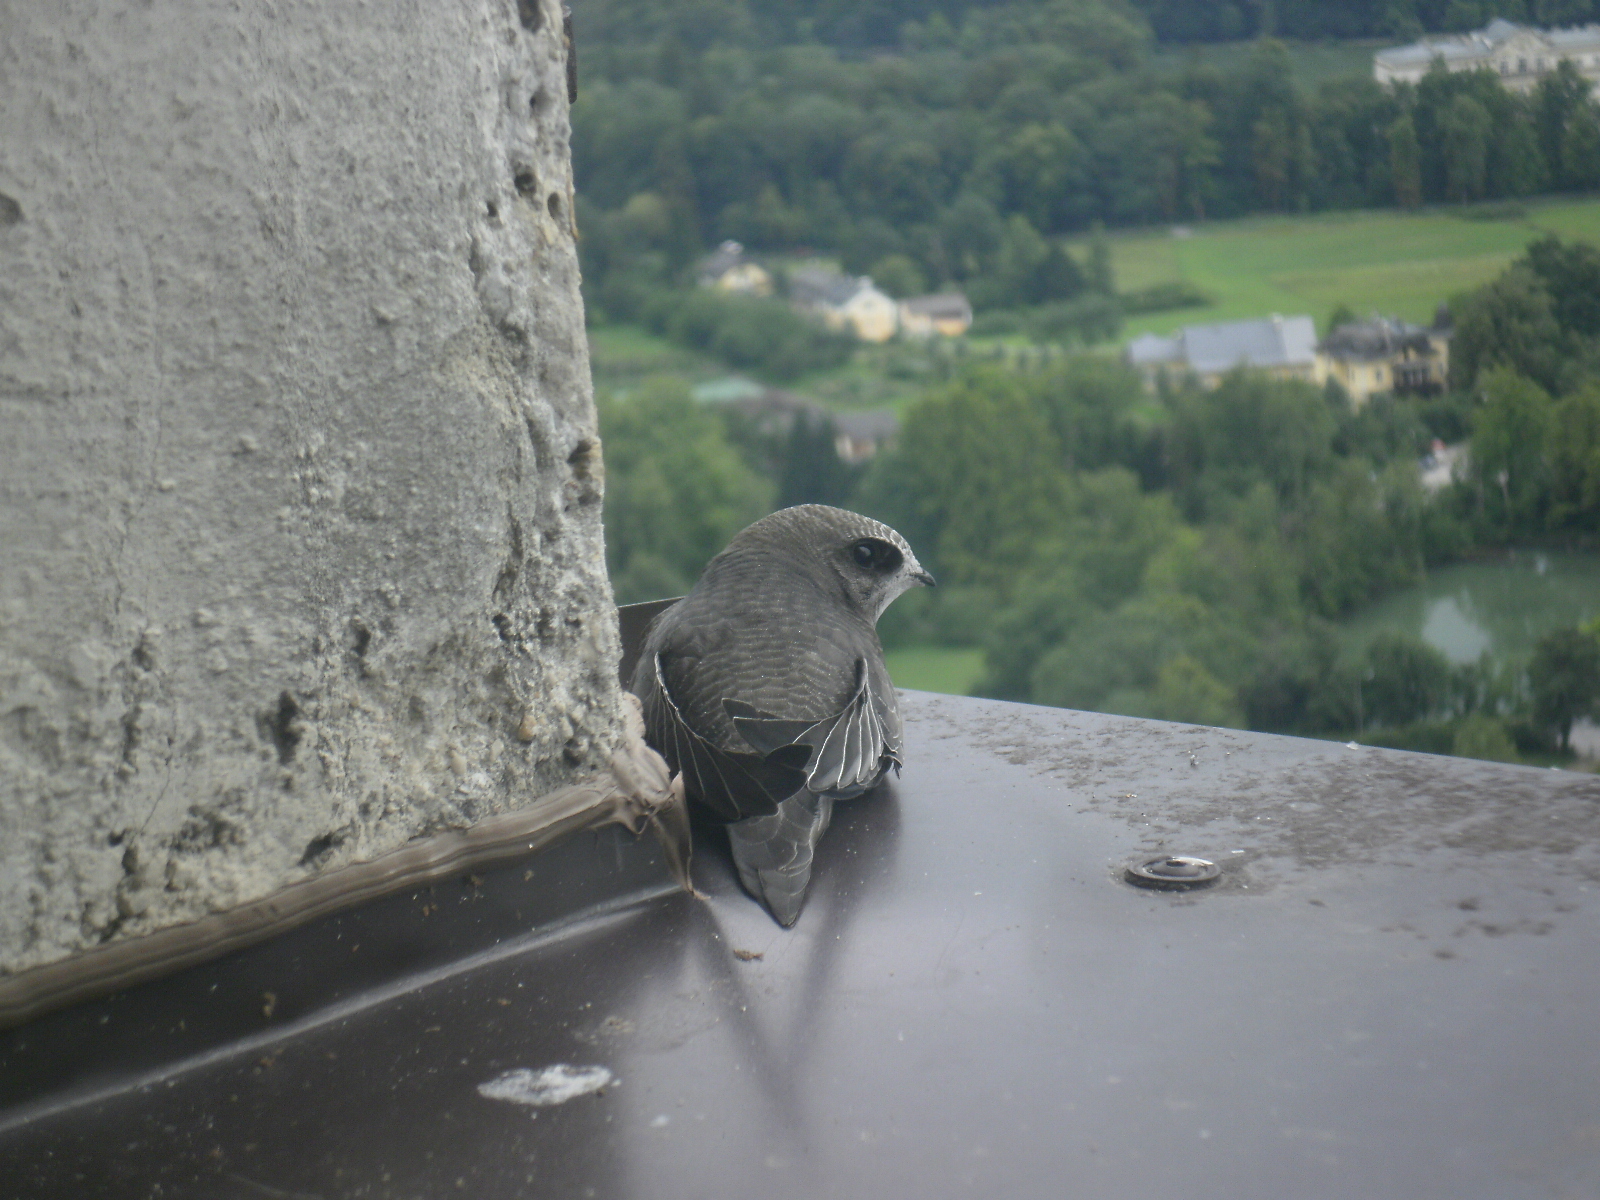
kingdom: Animalia
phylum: Chordata
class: Aves
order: Apodiformes
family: Apodidae
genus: Apus
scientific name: Apus apus
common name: Common swift
